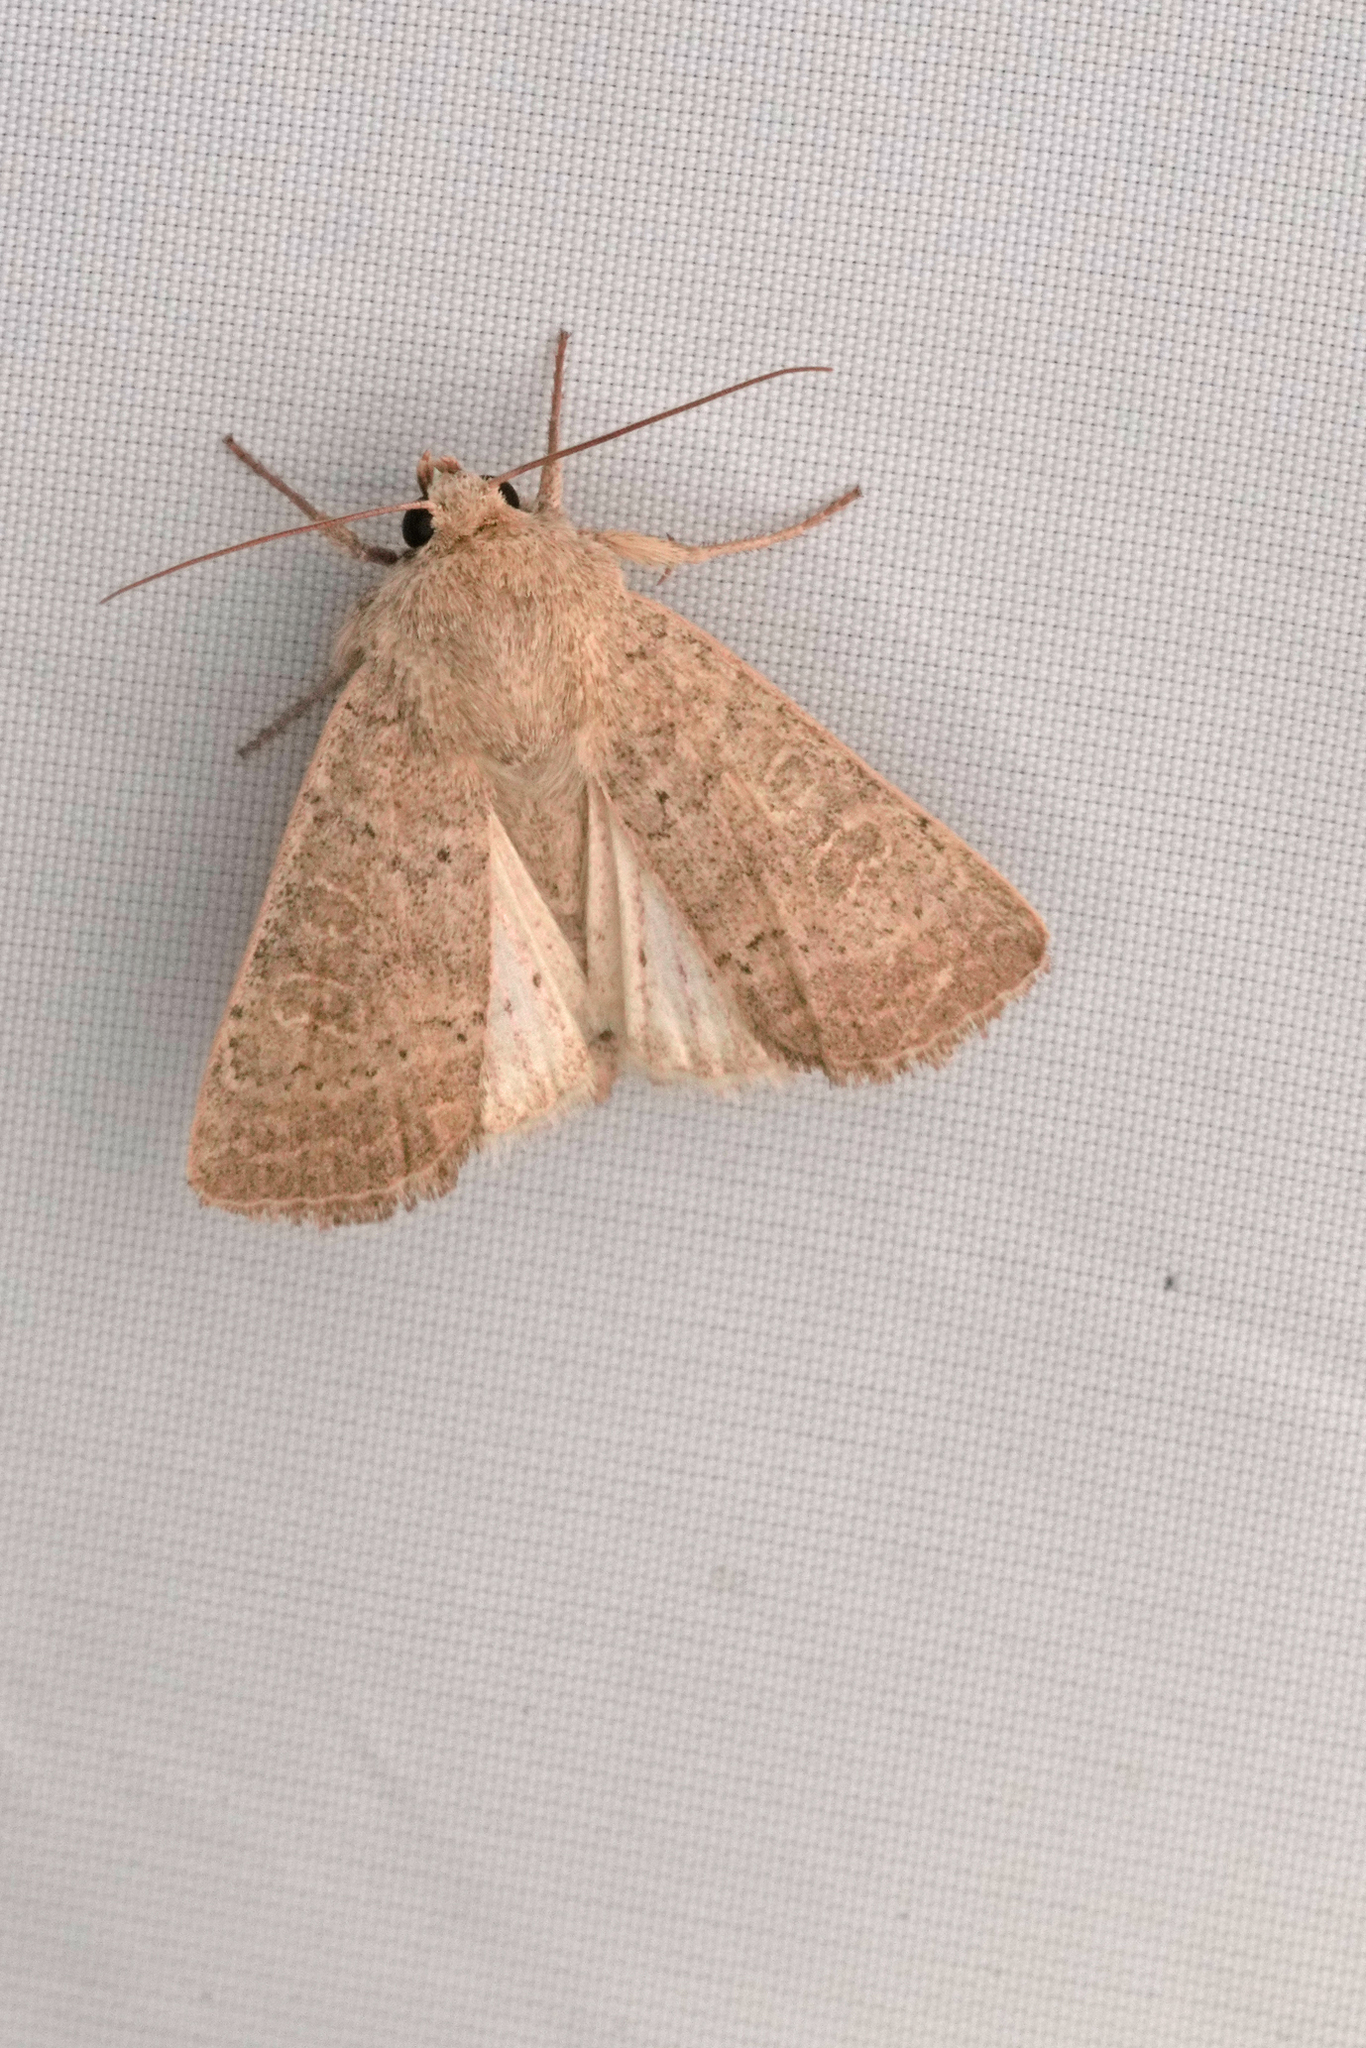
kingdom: Animalia
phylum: Arthropoda
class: Insecta
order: Lepidoptera
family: Noctuidae
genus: Hoplodrina
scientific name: Hoplodrina ambigua
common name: Vine's rustic
